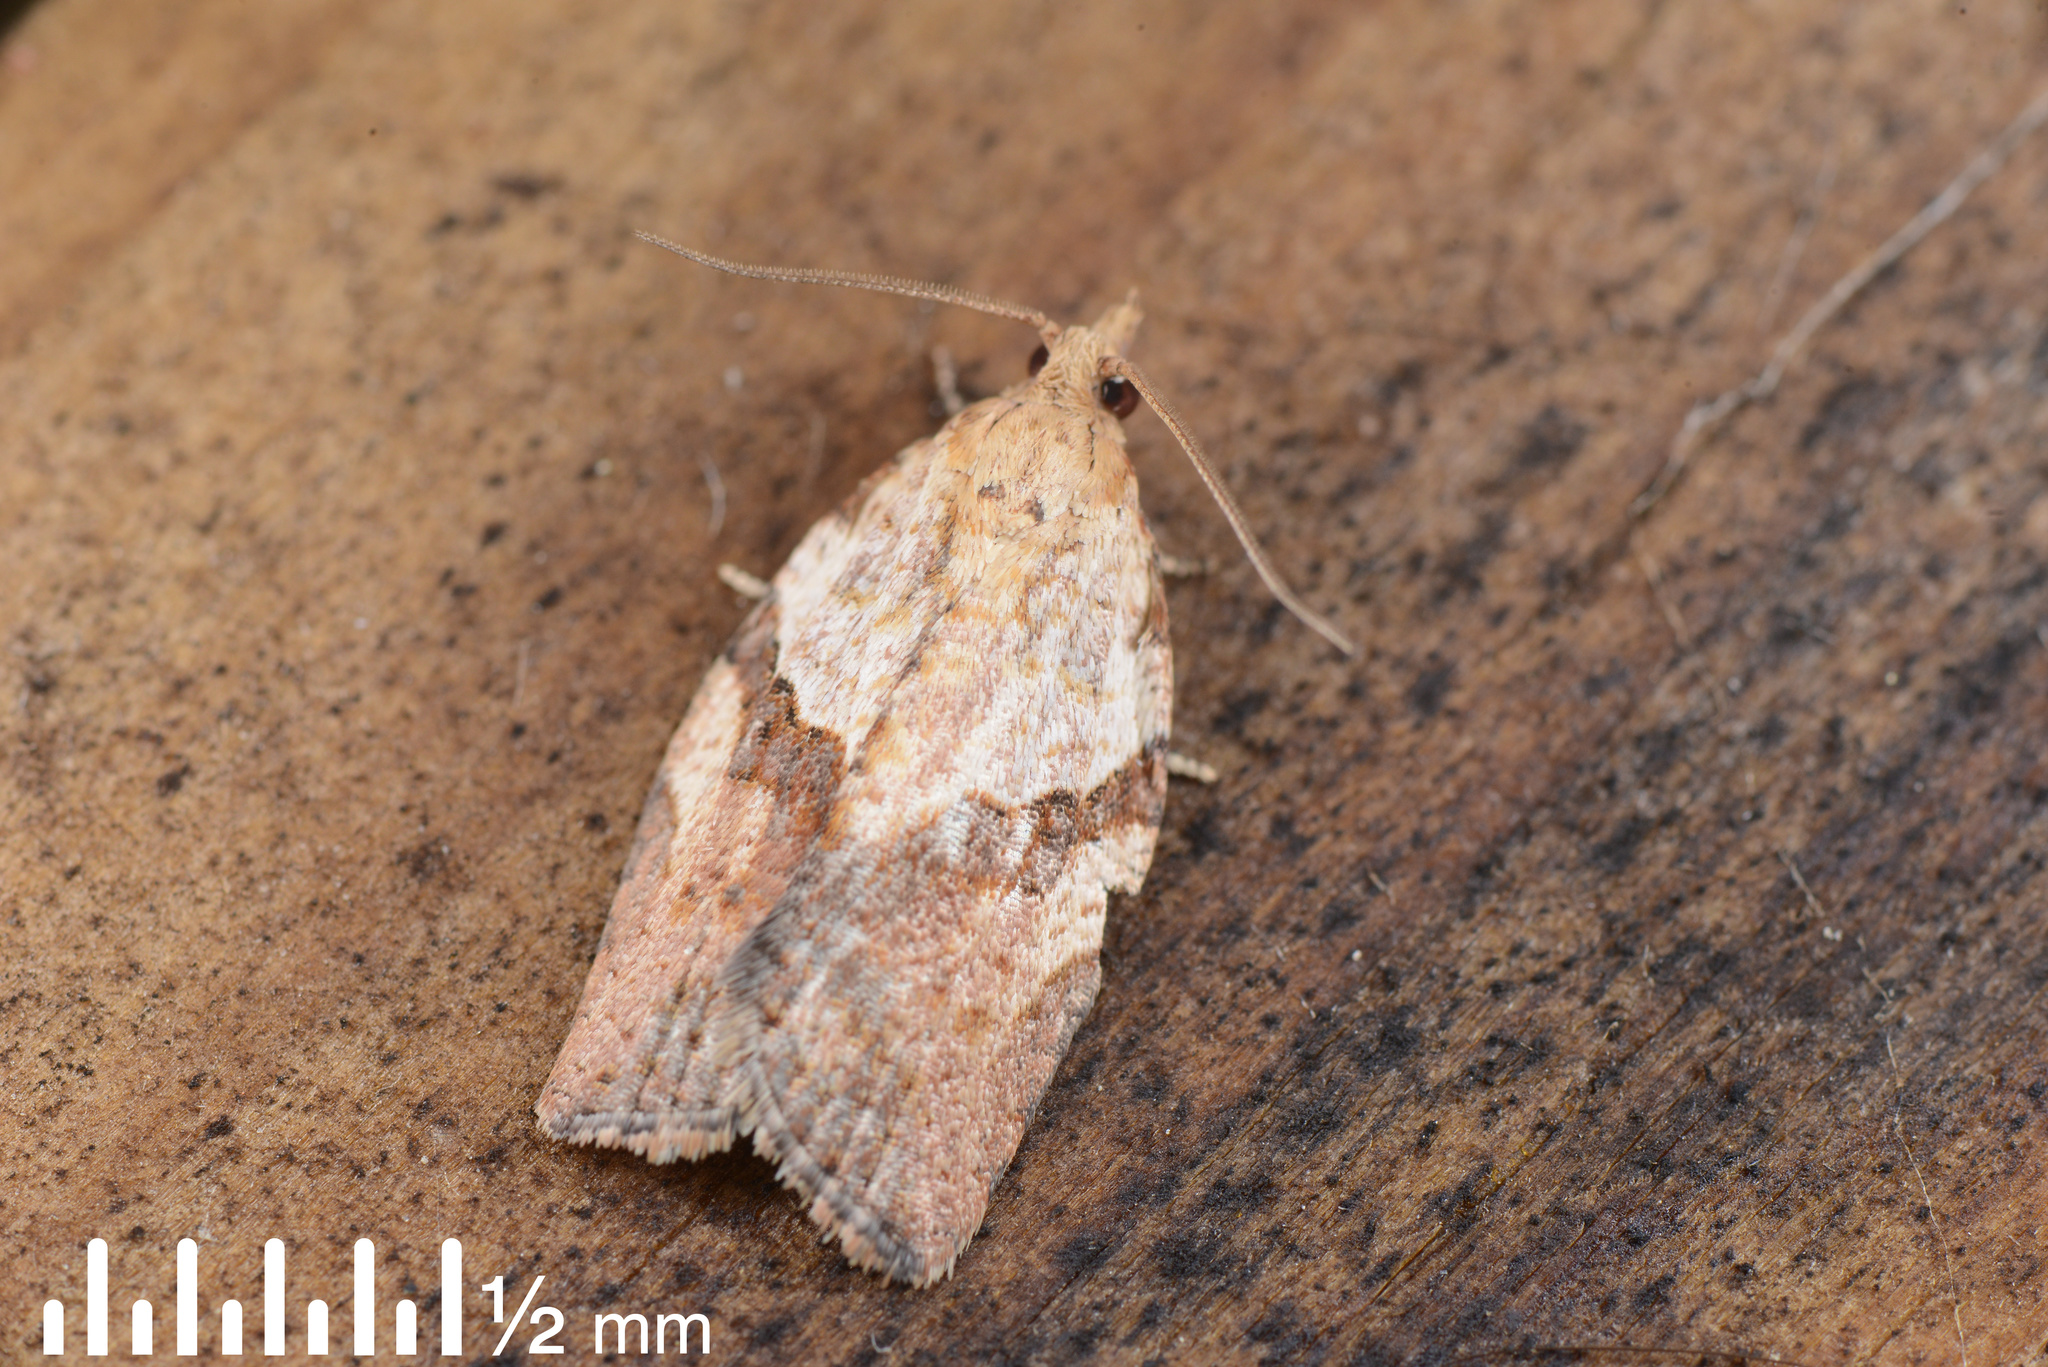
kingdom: Animalia
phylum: Arthropoda
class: Insecta
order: Lepidoptera
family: Tortricidae
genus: Epiphyas
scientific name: Epiphyas postvittana
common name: Light brown apple moth
